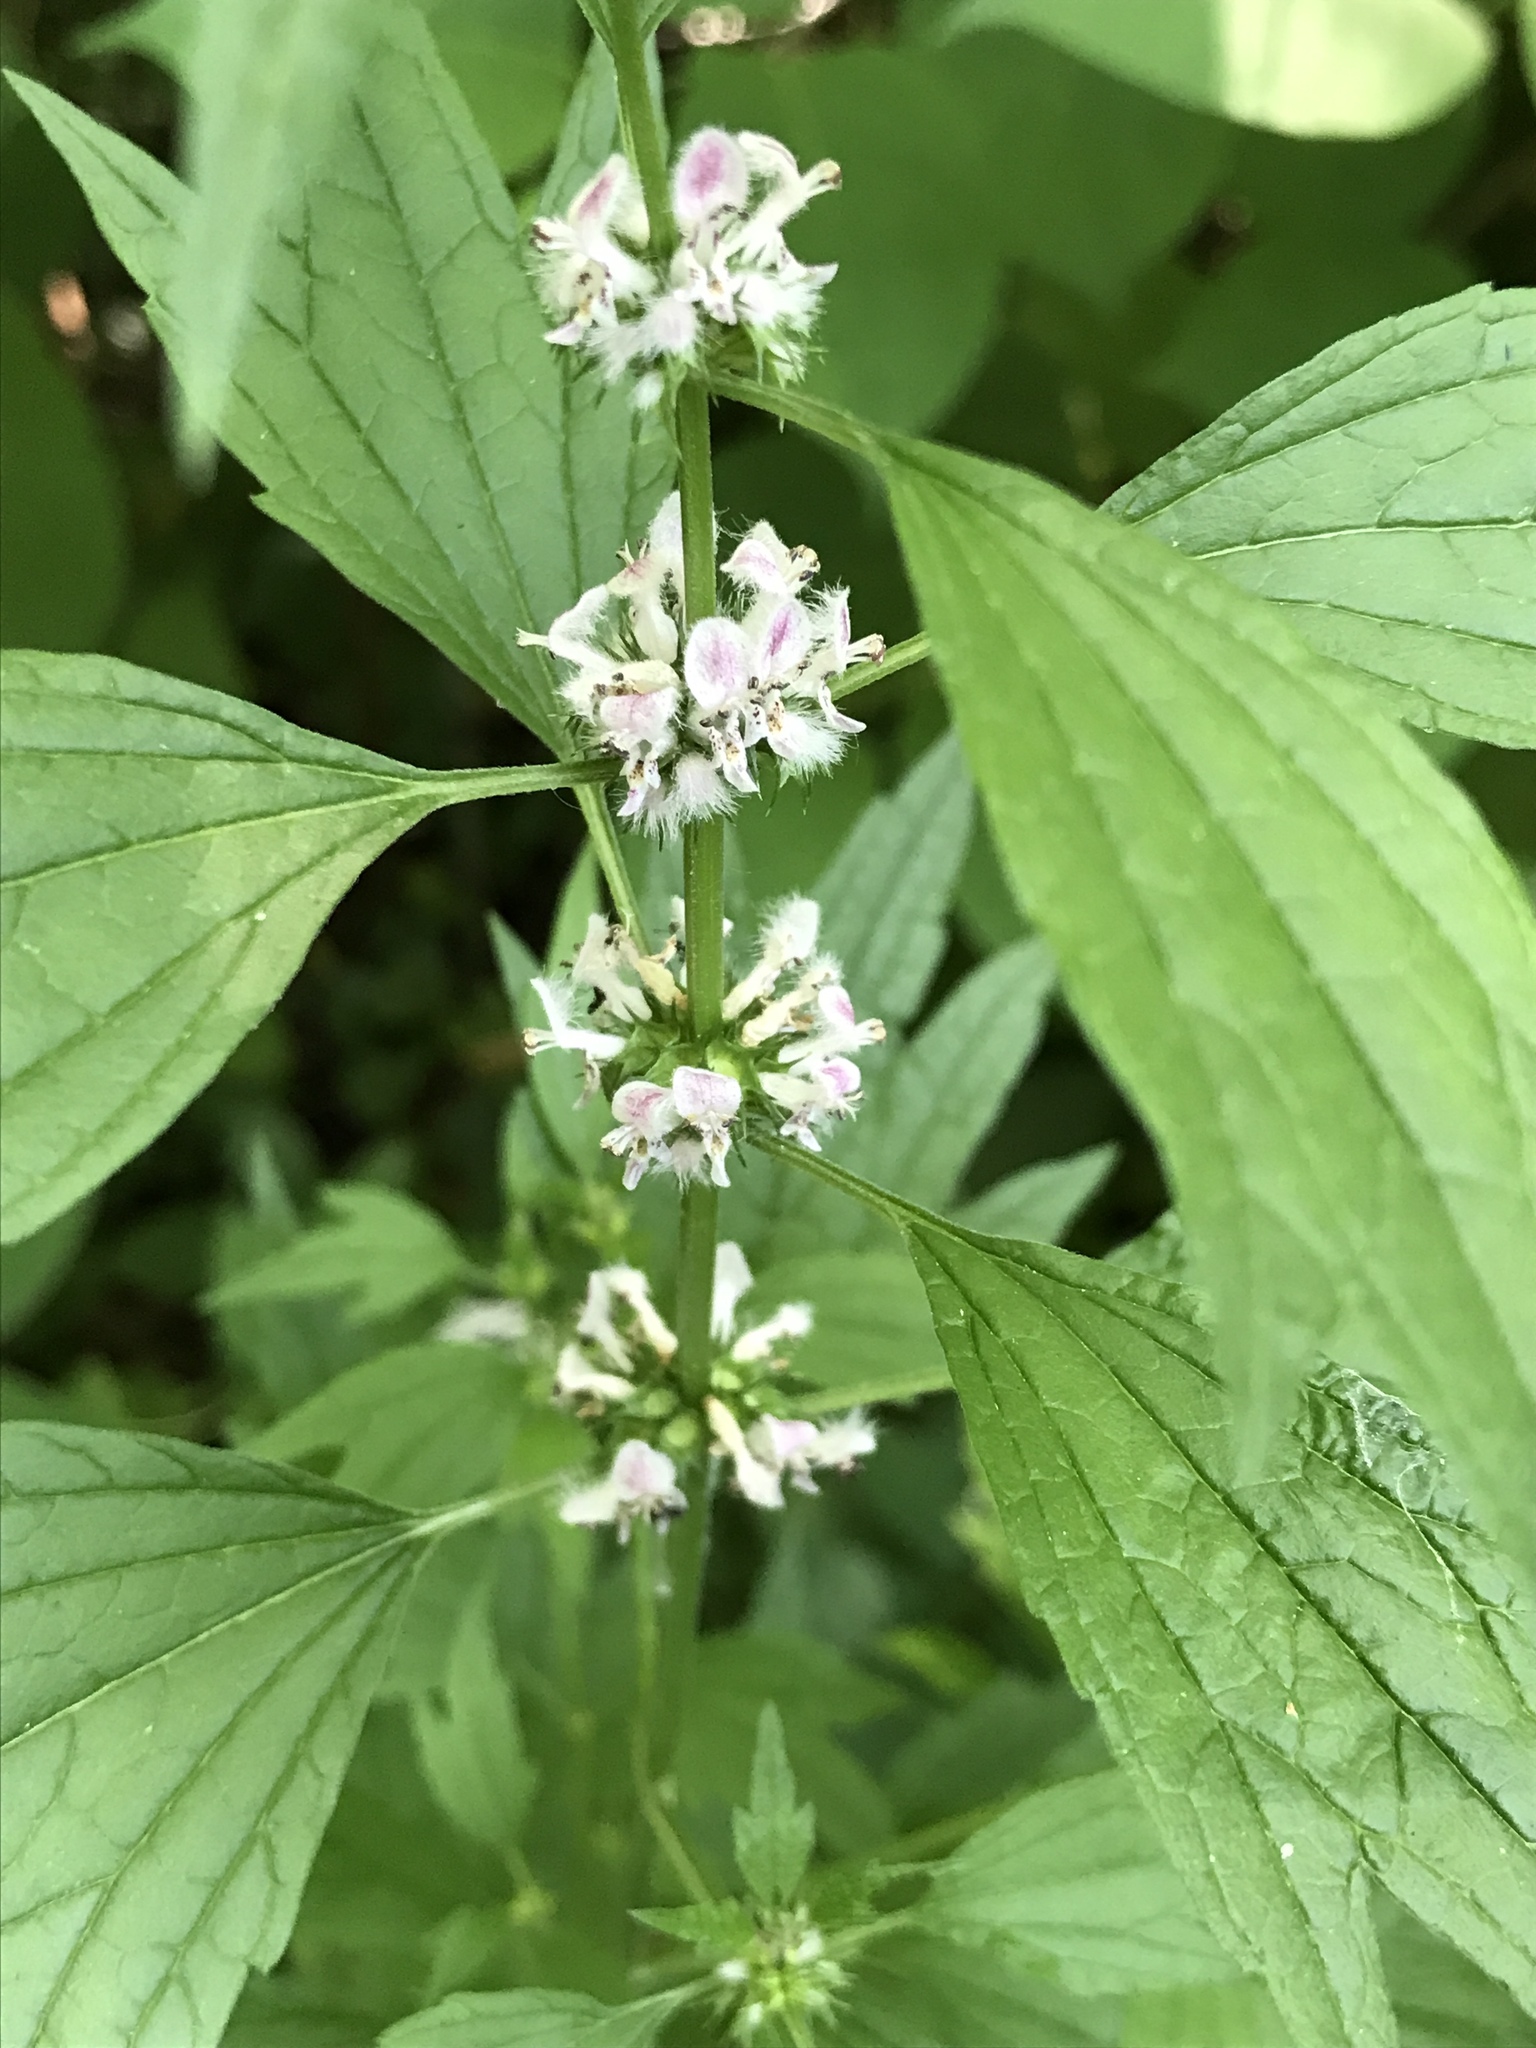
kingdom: Plantae
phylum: Tracheophyta
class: Magnoliopsida
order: Lamiales
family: Lamiaceae
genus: Leonurus
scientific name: Leonurus cardiaca
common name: Motherwort
